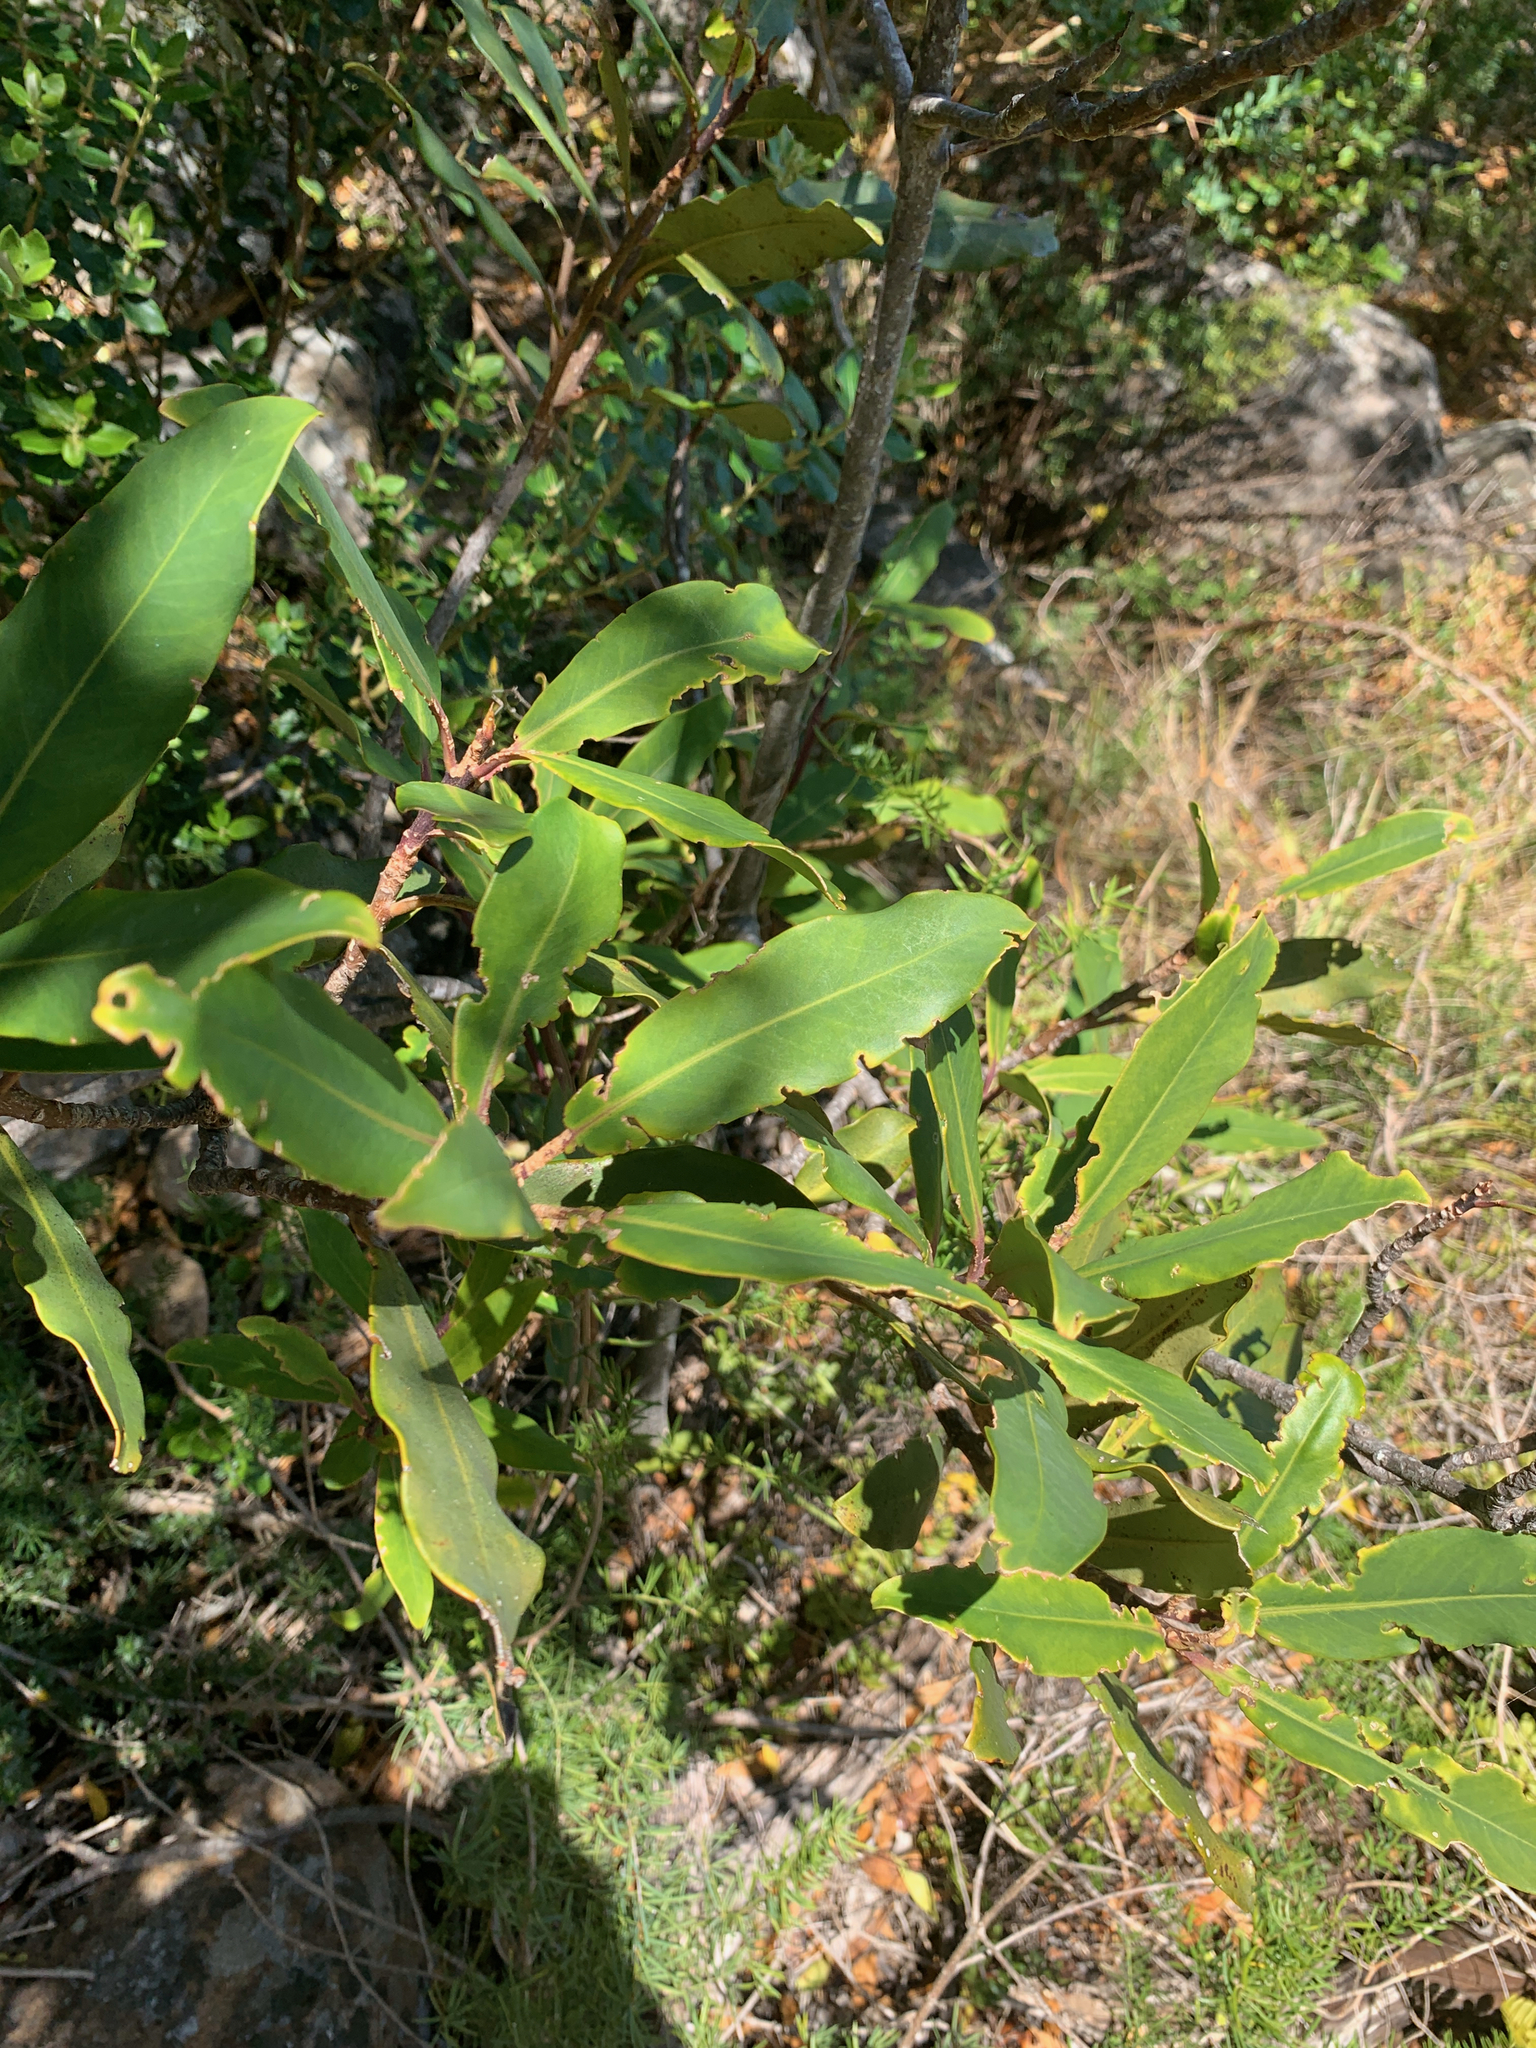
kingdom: Plantae
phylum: Tracheophyta
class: Magnoliopsida
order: Ericales
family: Primulaceae
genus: Myrsine
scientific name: Myrsine melanophloeos
